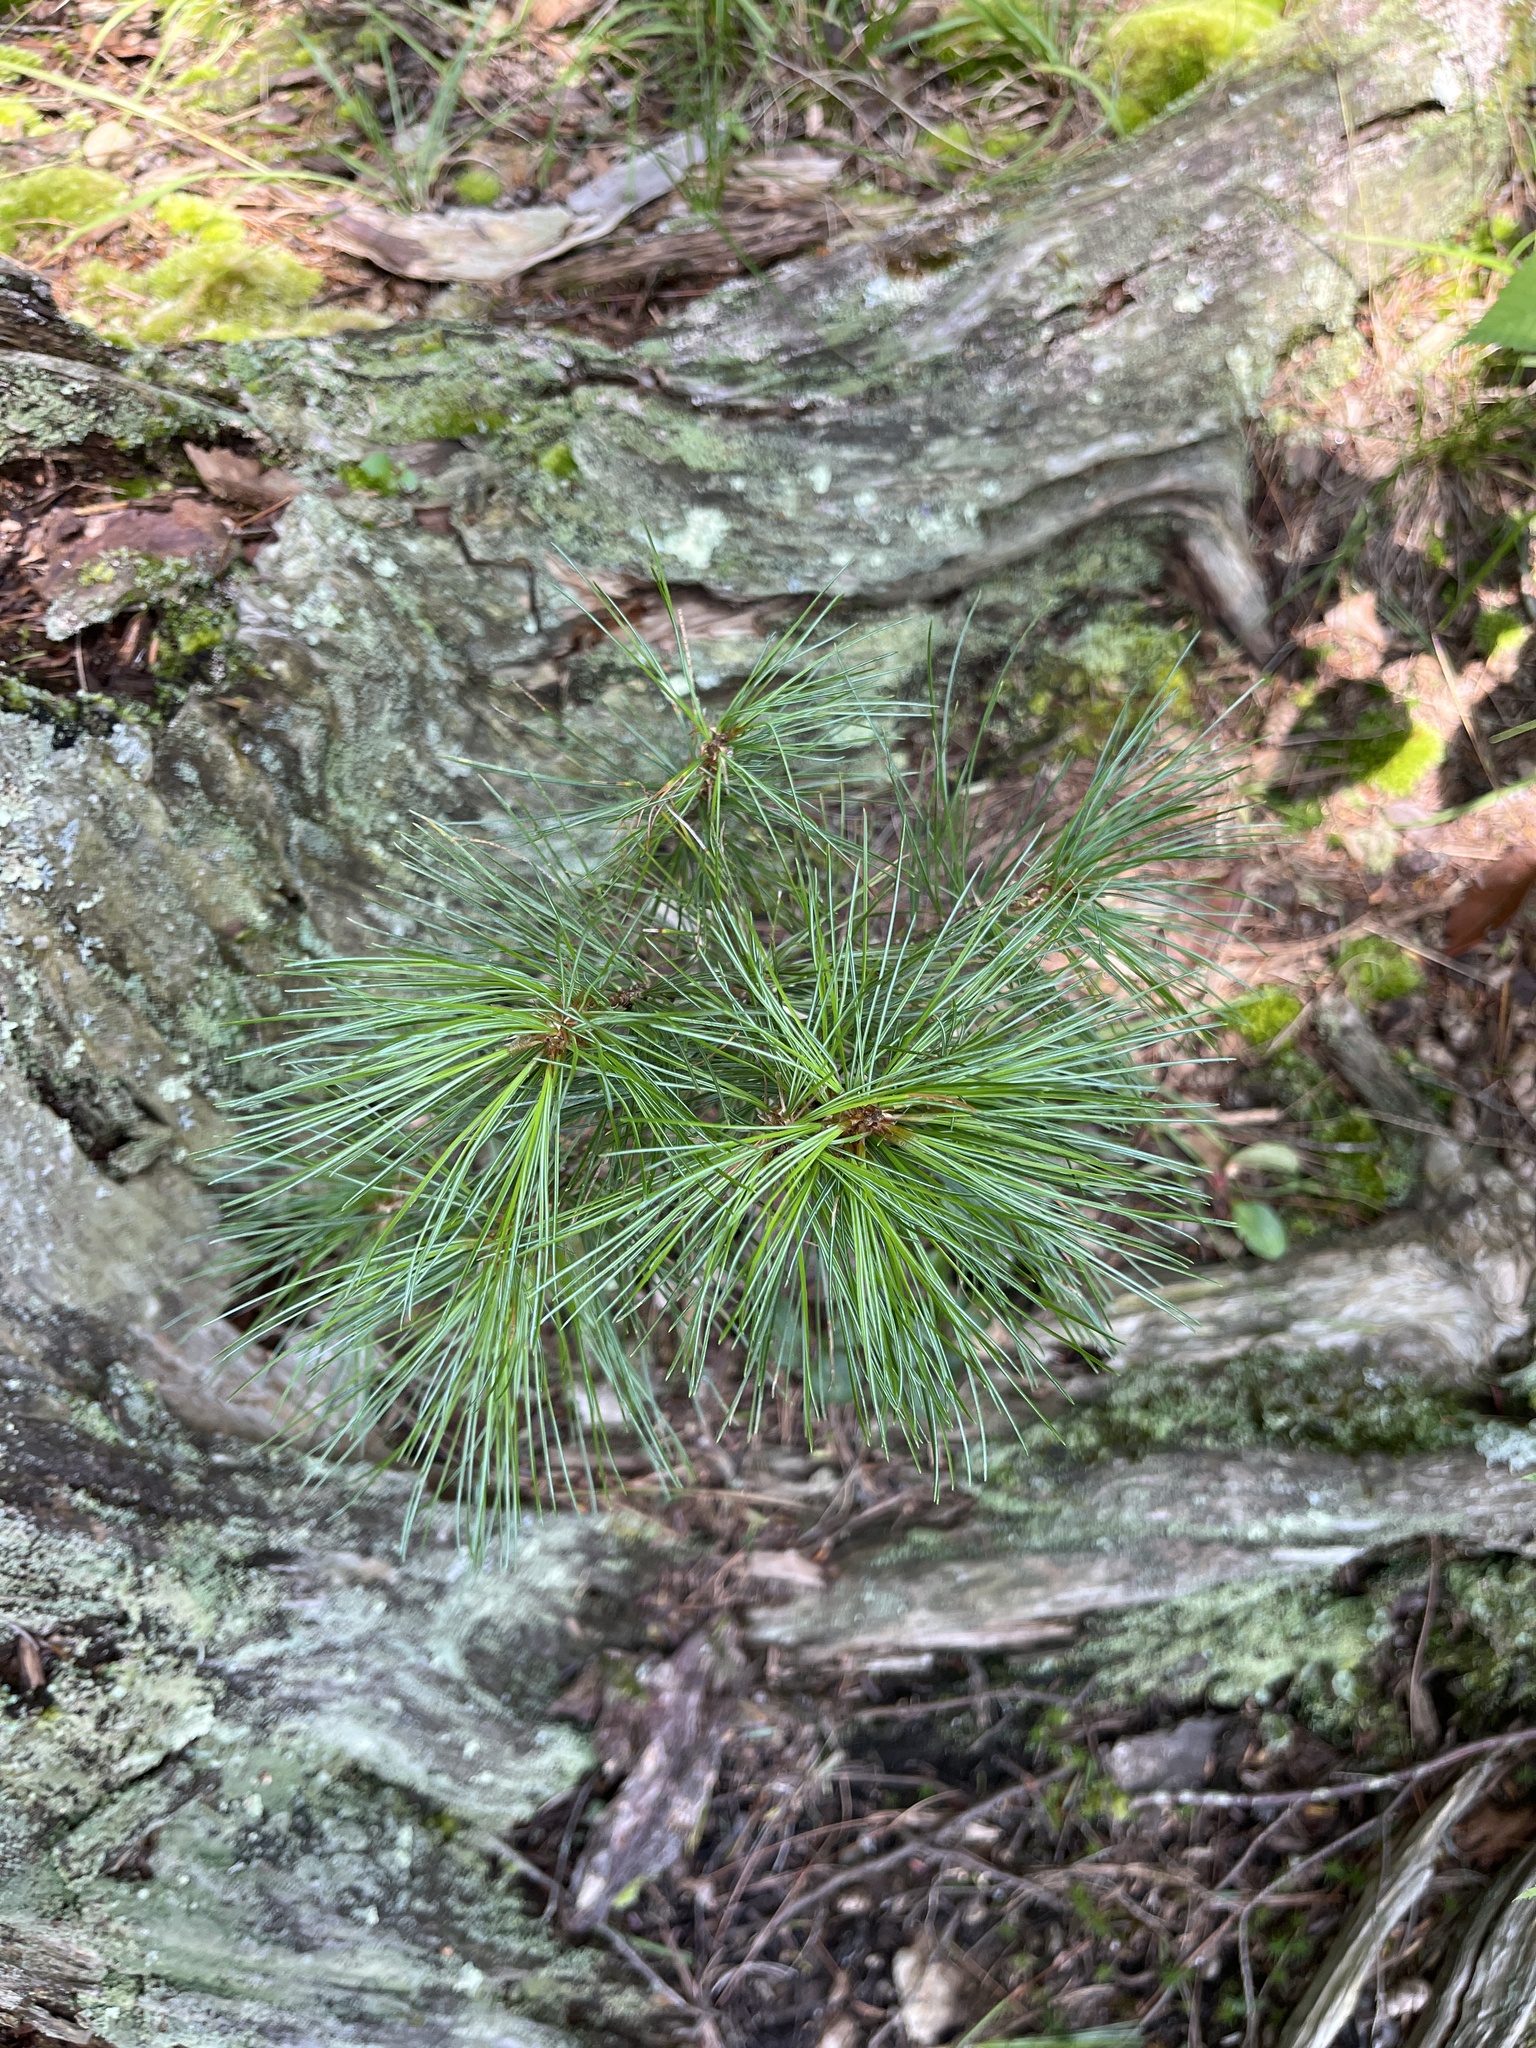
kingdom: Plantae
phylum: Tracheophyta
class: Pinopsida
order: Pinales
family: Pinaceae
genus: Pinus
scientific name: Pinus strobus
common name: Weymouth pine
